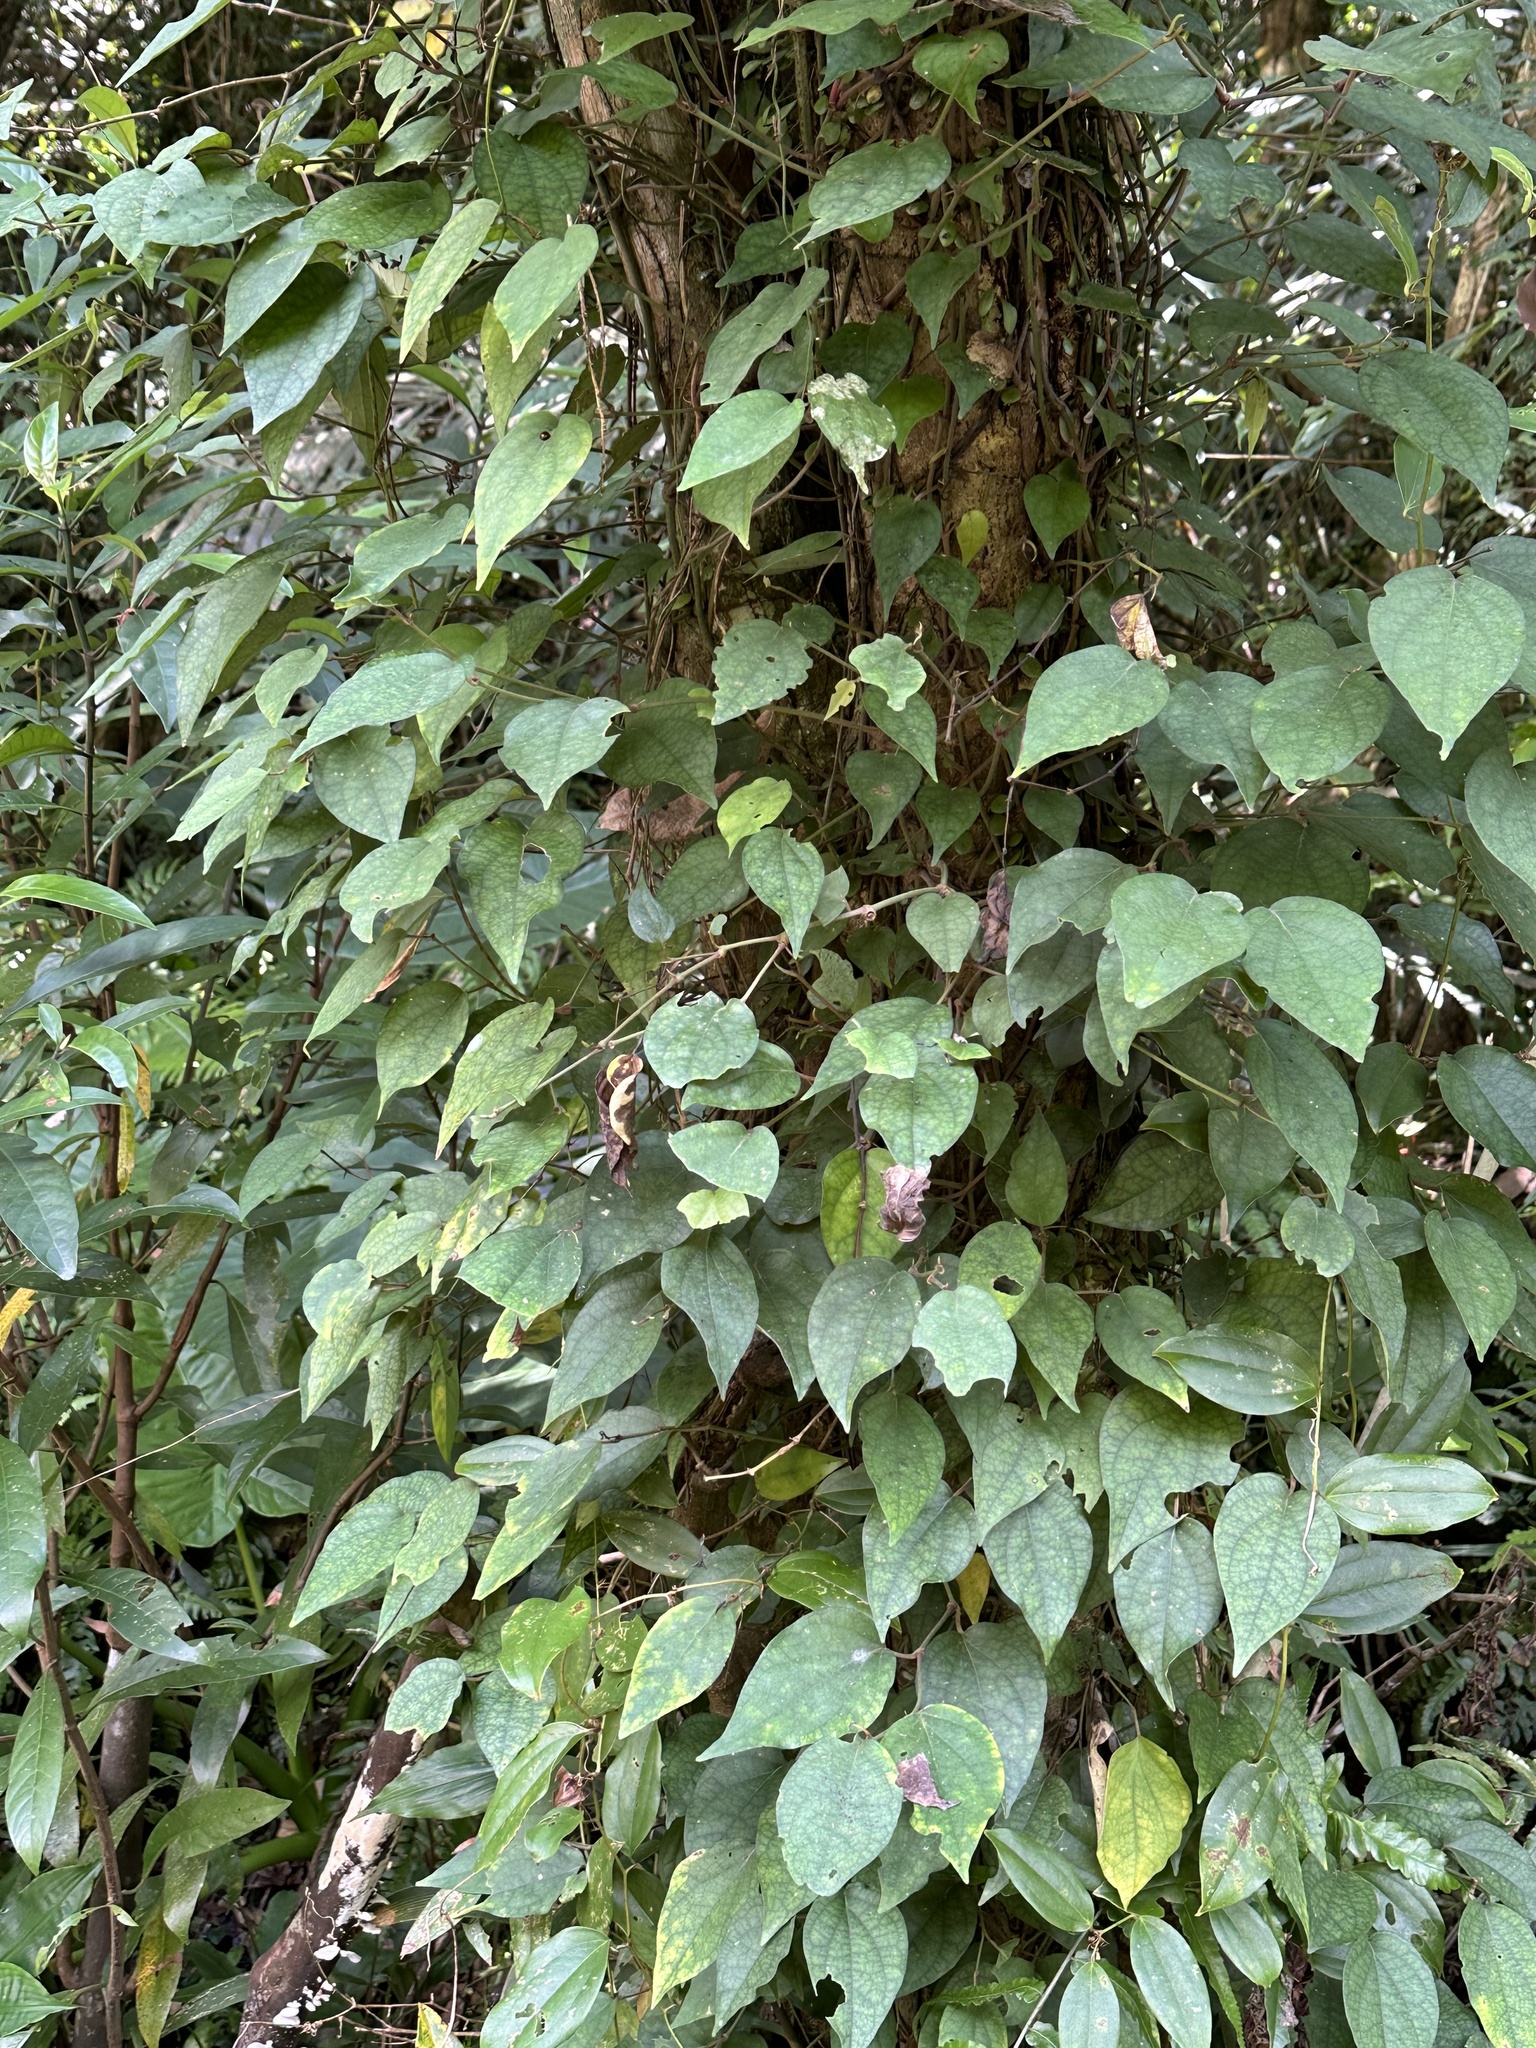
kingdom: Plantae
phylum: Tracheophyta
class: Magnoliopsida
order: Piperales
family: Piperaceae
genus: Piper
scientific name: Piper kadsura
